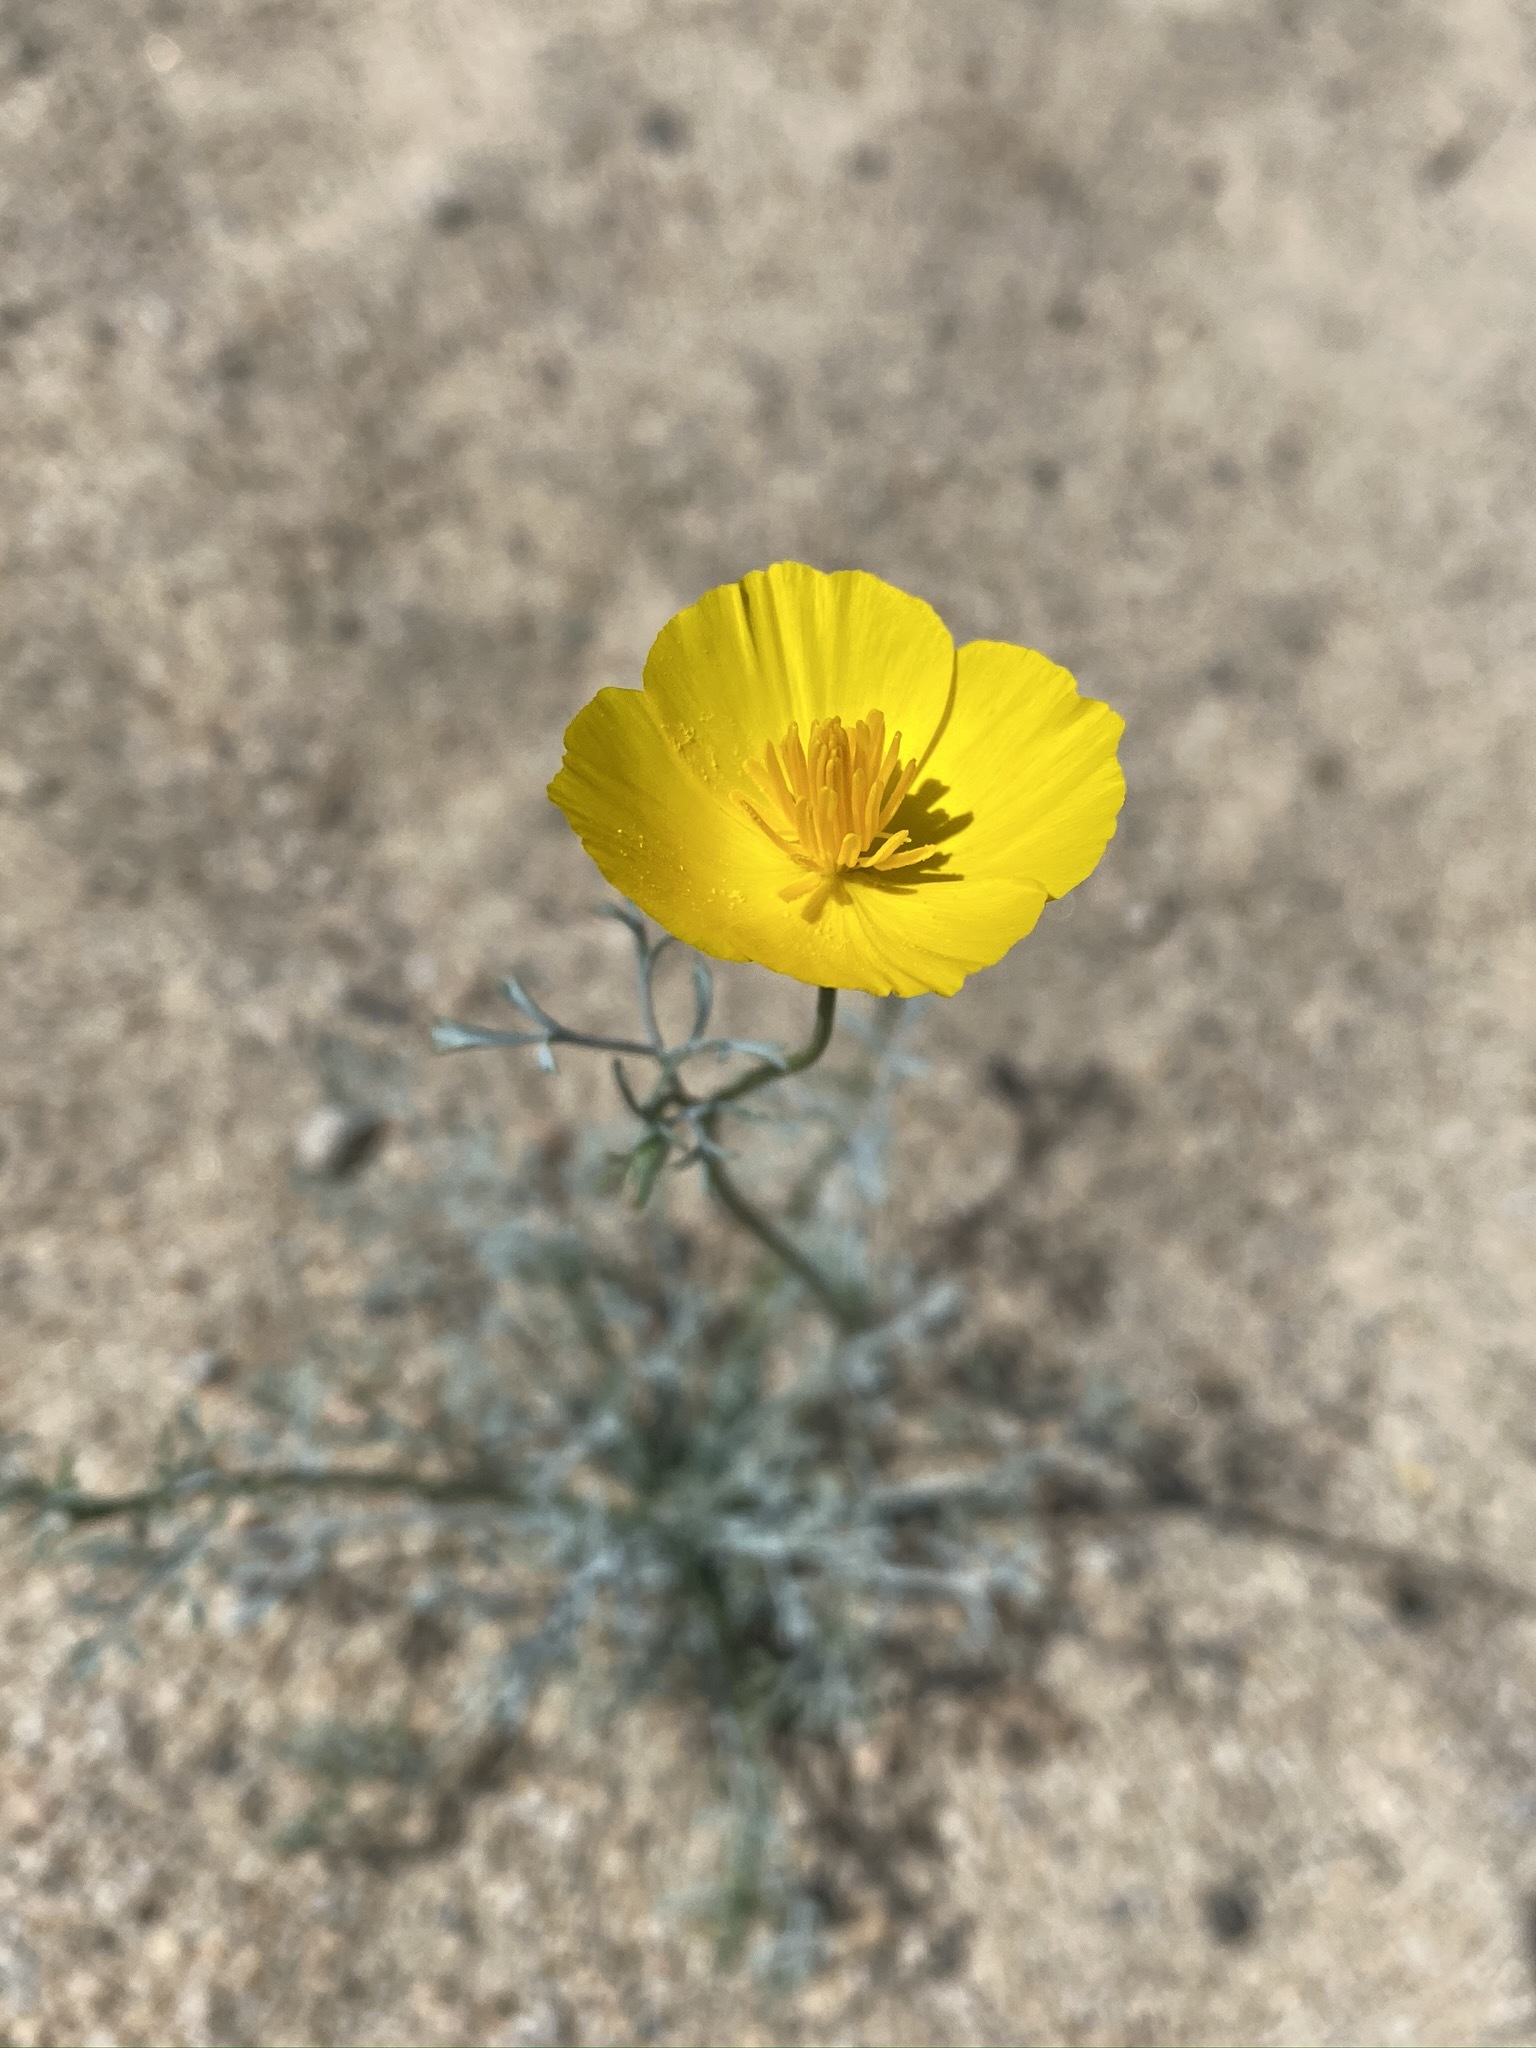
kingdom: Plantae
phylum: Tracheophyta
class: Magnoliopsida
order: Ranunculales
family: Papaveraceae
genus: Eschscholzia
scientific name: Eschscholzia parishii
